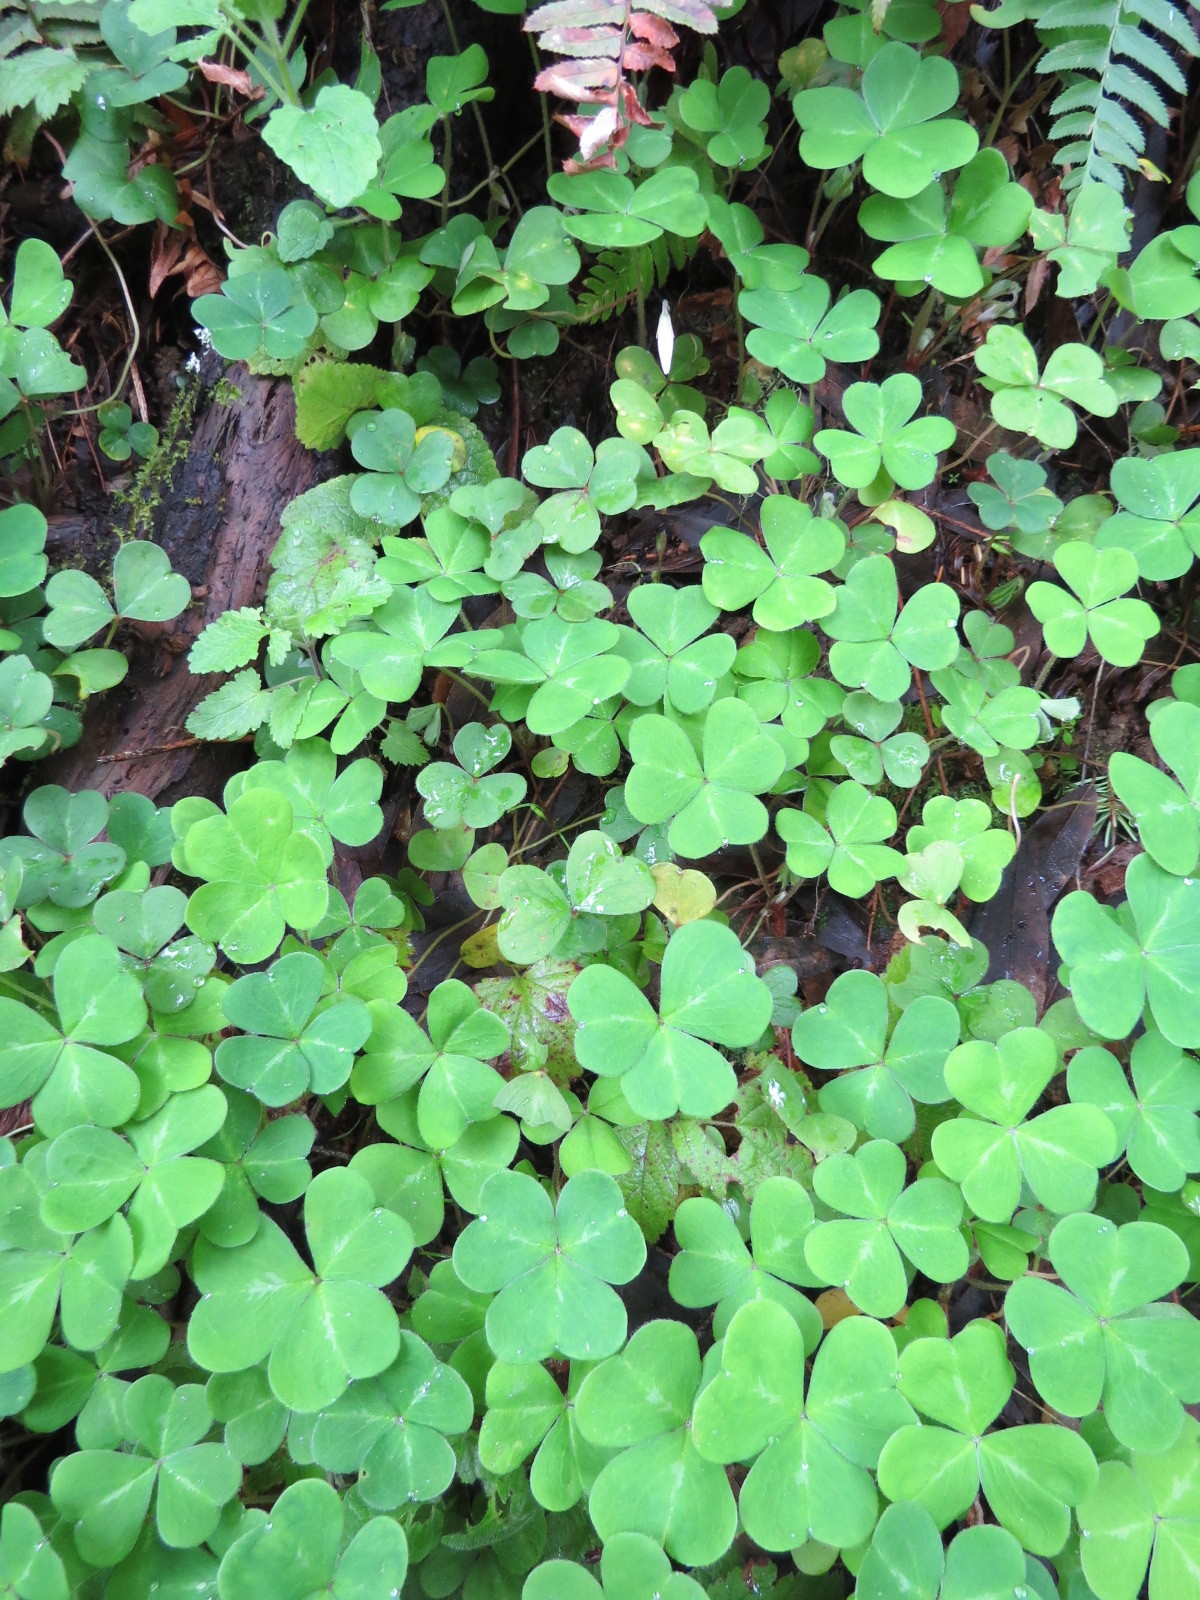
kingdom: Plantae
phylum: Tracheophyta
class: Magnoliopsida
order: Oxalidales
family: Oxalidaceae
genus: Oxalis
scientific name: Oxalis oregana
